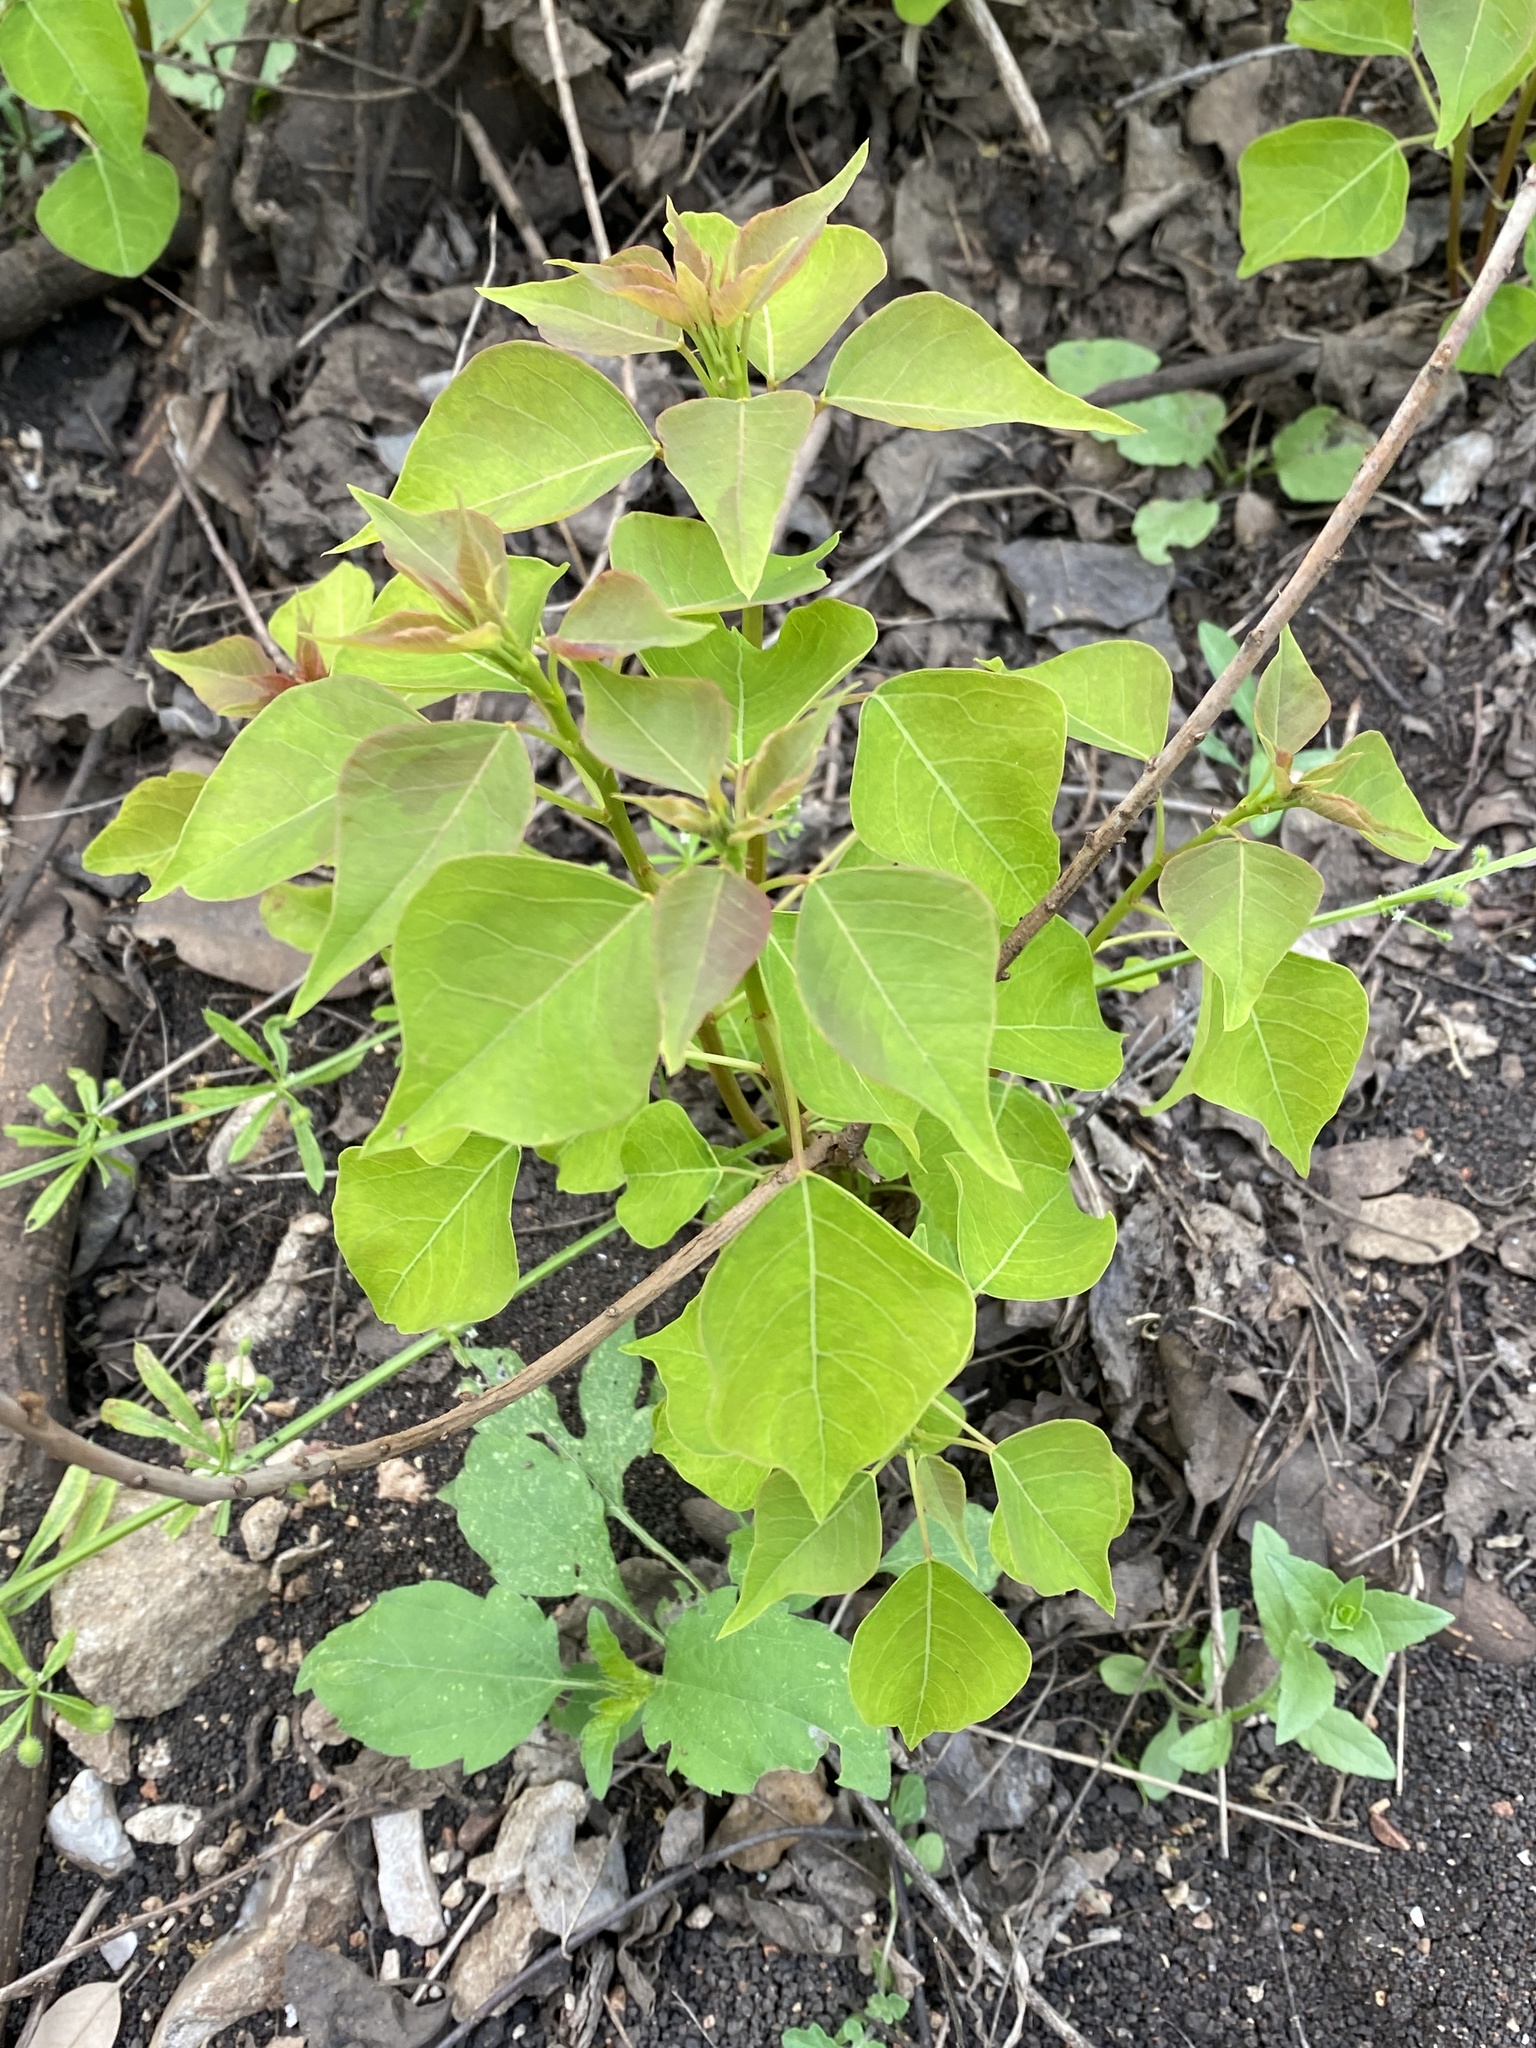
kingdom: Plantae
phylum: Tracheophyta
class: Magnoliopsida
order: Malpighiales
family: Euphorbiaceae
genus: Triadica
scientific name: Triadica sebifera
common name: Chinese tallow
